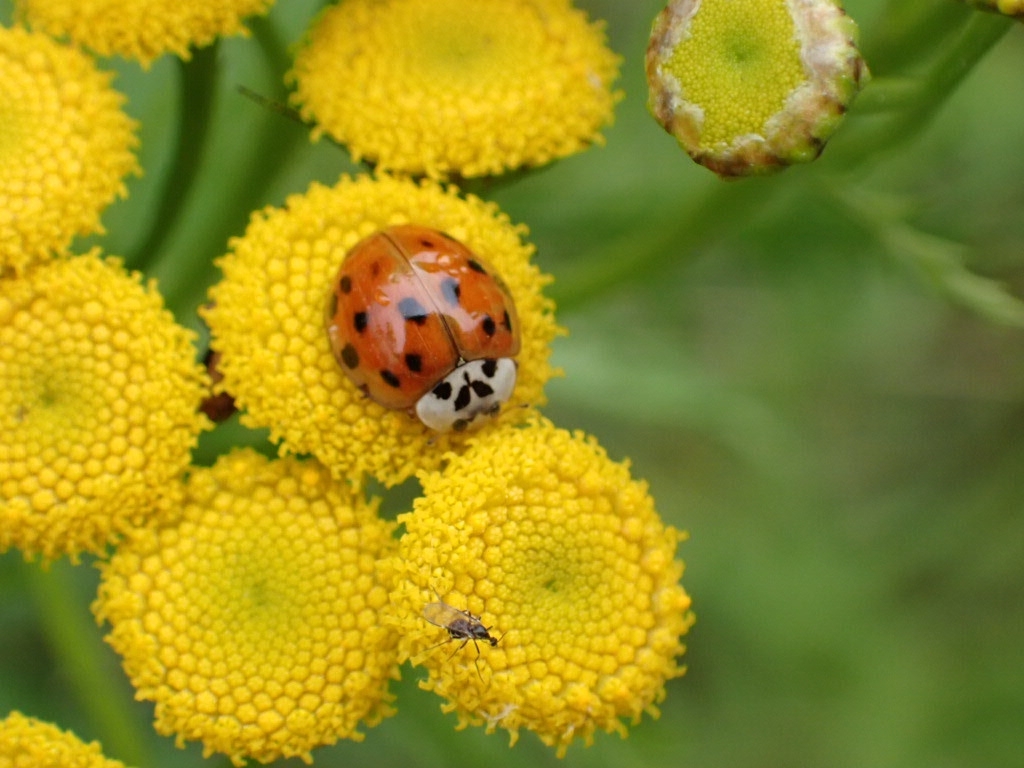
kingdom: Animalia
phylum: Arthropoda
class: Insecta
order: Coleoptera
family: Coccinellidae
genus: Harmonia
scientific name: Harmonia axyridis
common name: Harlequin ladybird
